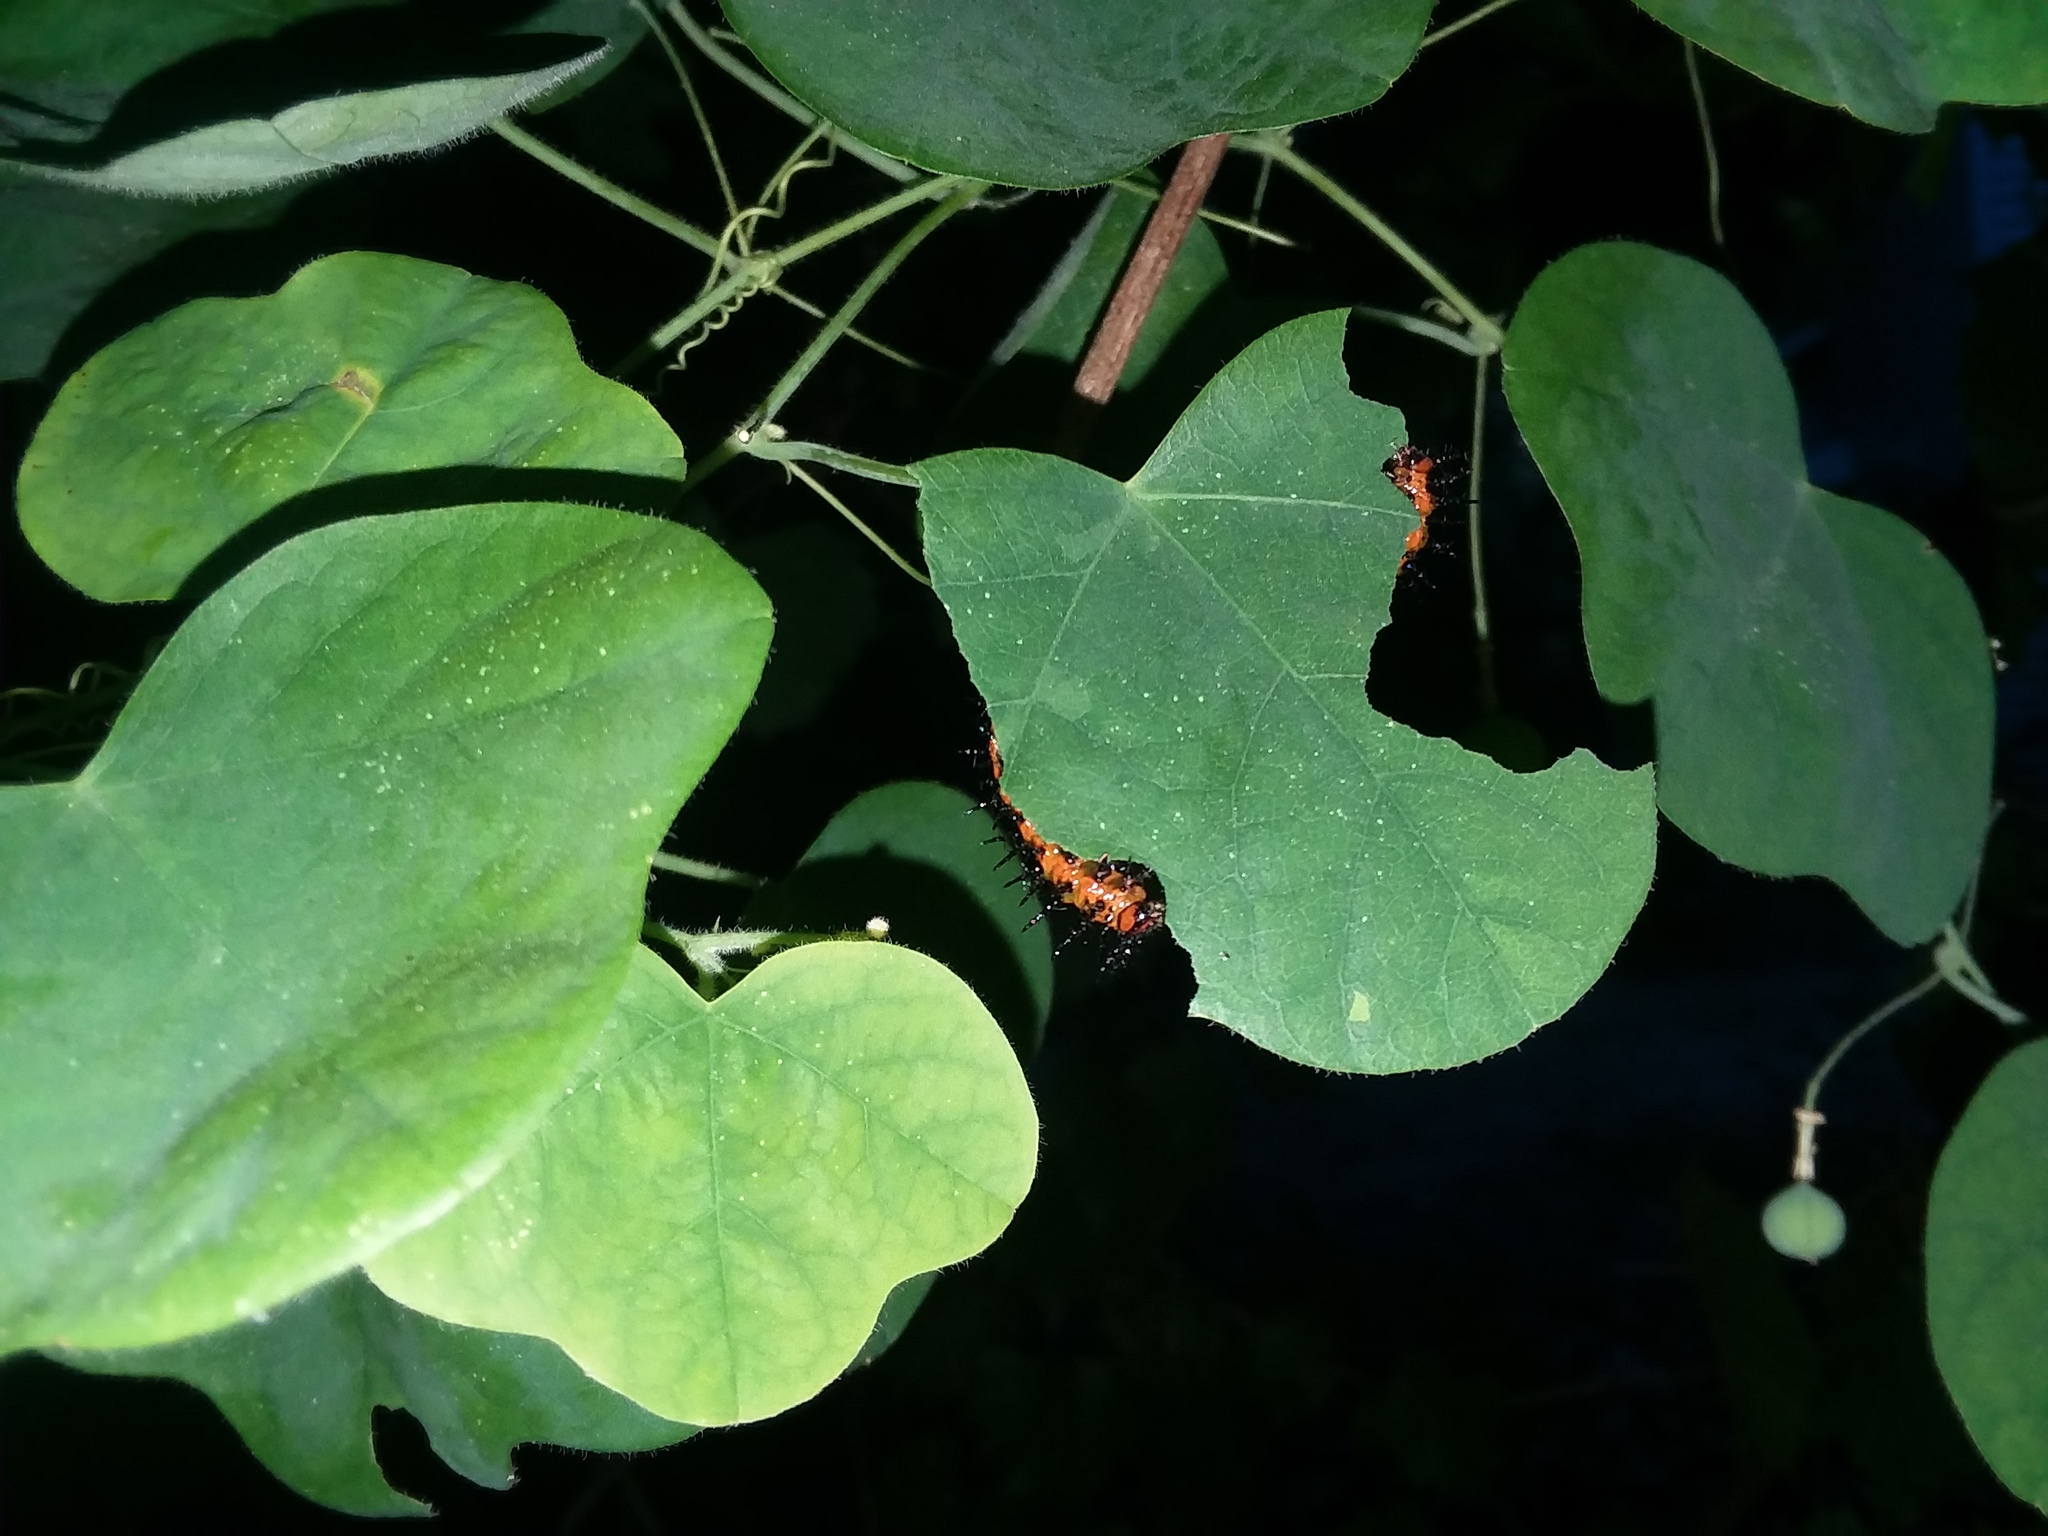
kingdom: Animalia
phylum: Arthropoda
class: Insecta
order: Lepidoptera
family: Nymphalidae
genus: Dione
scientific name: Dione vanillae
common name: Gulf fritillary
